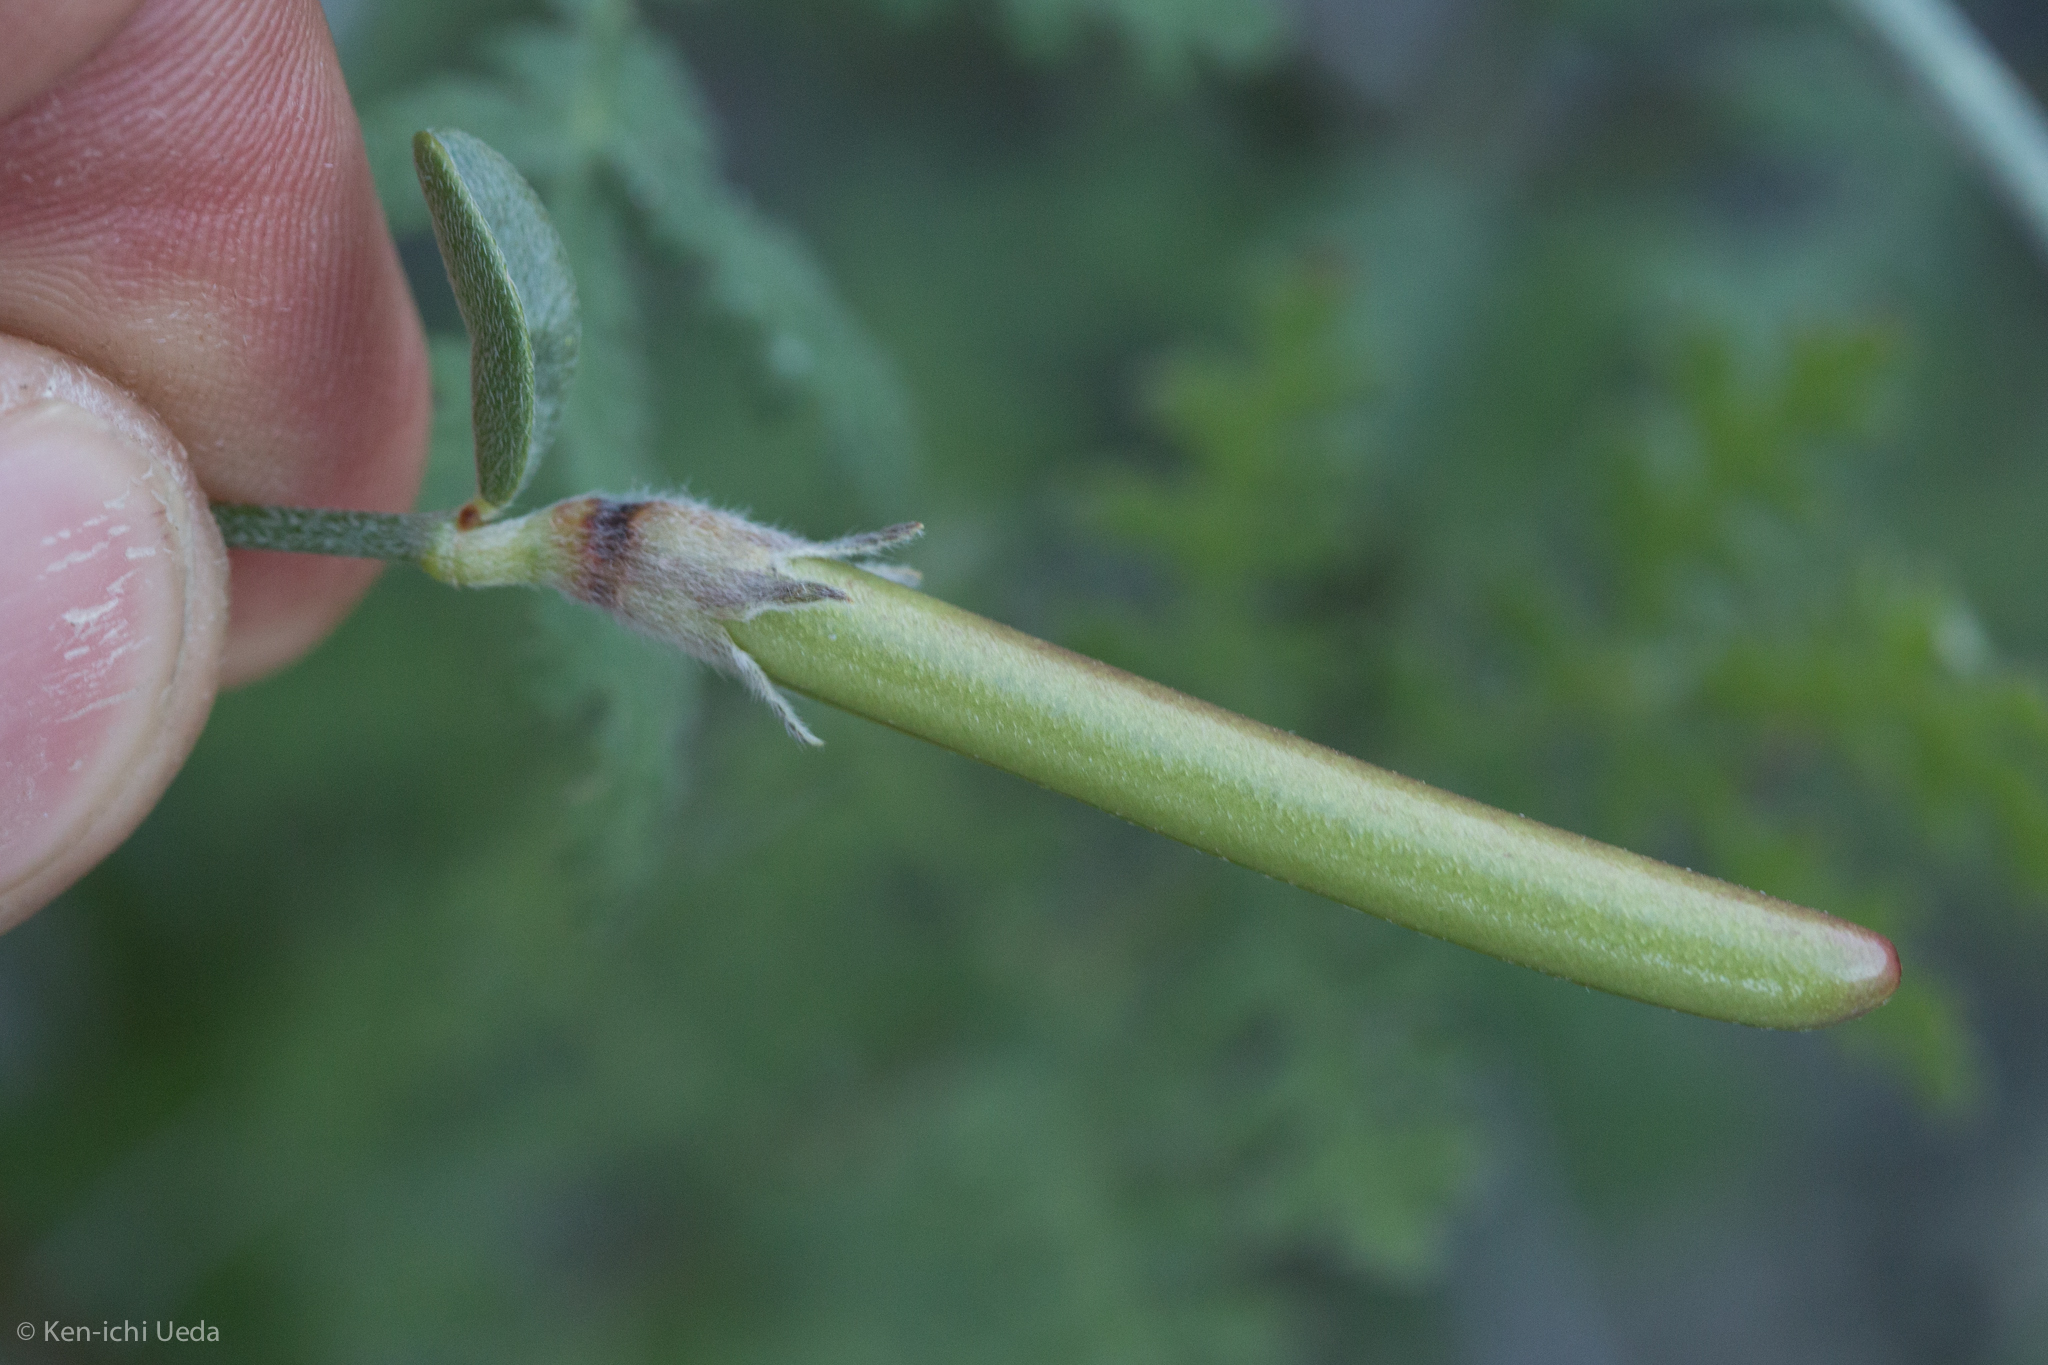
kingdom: Plantae
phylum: Tracheophyta
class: Magnoliopsida
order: Fabales
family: Fabaceae
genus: Acmispon
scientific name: Acmispon rigidus
